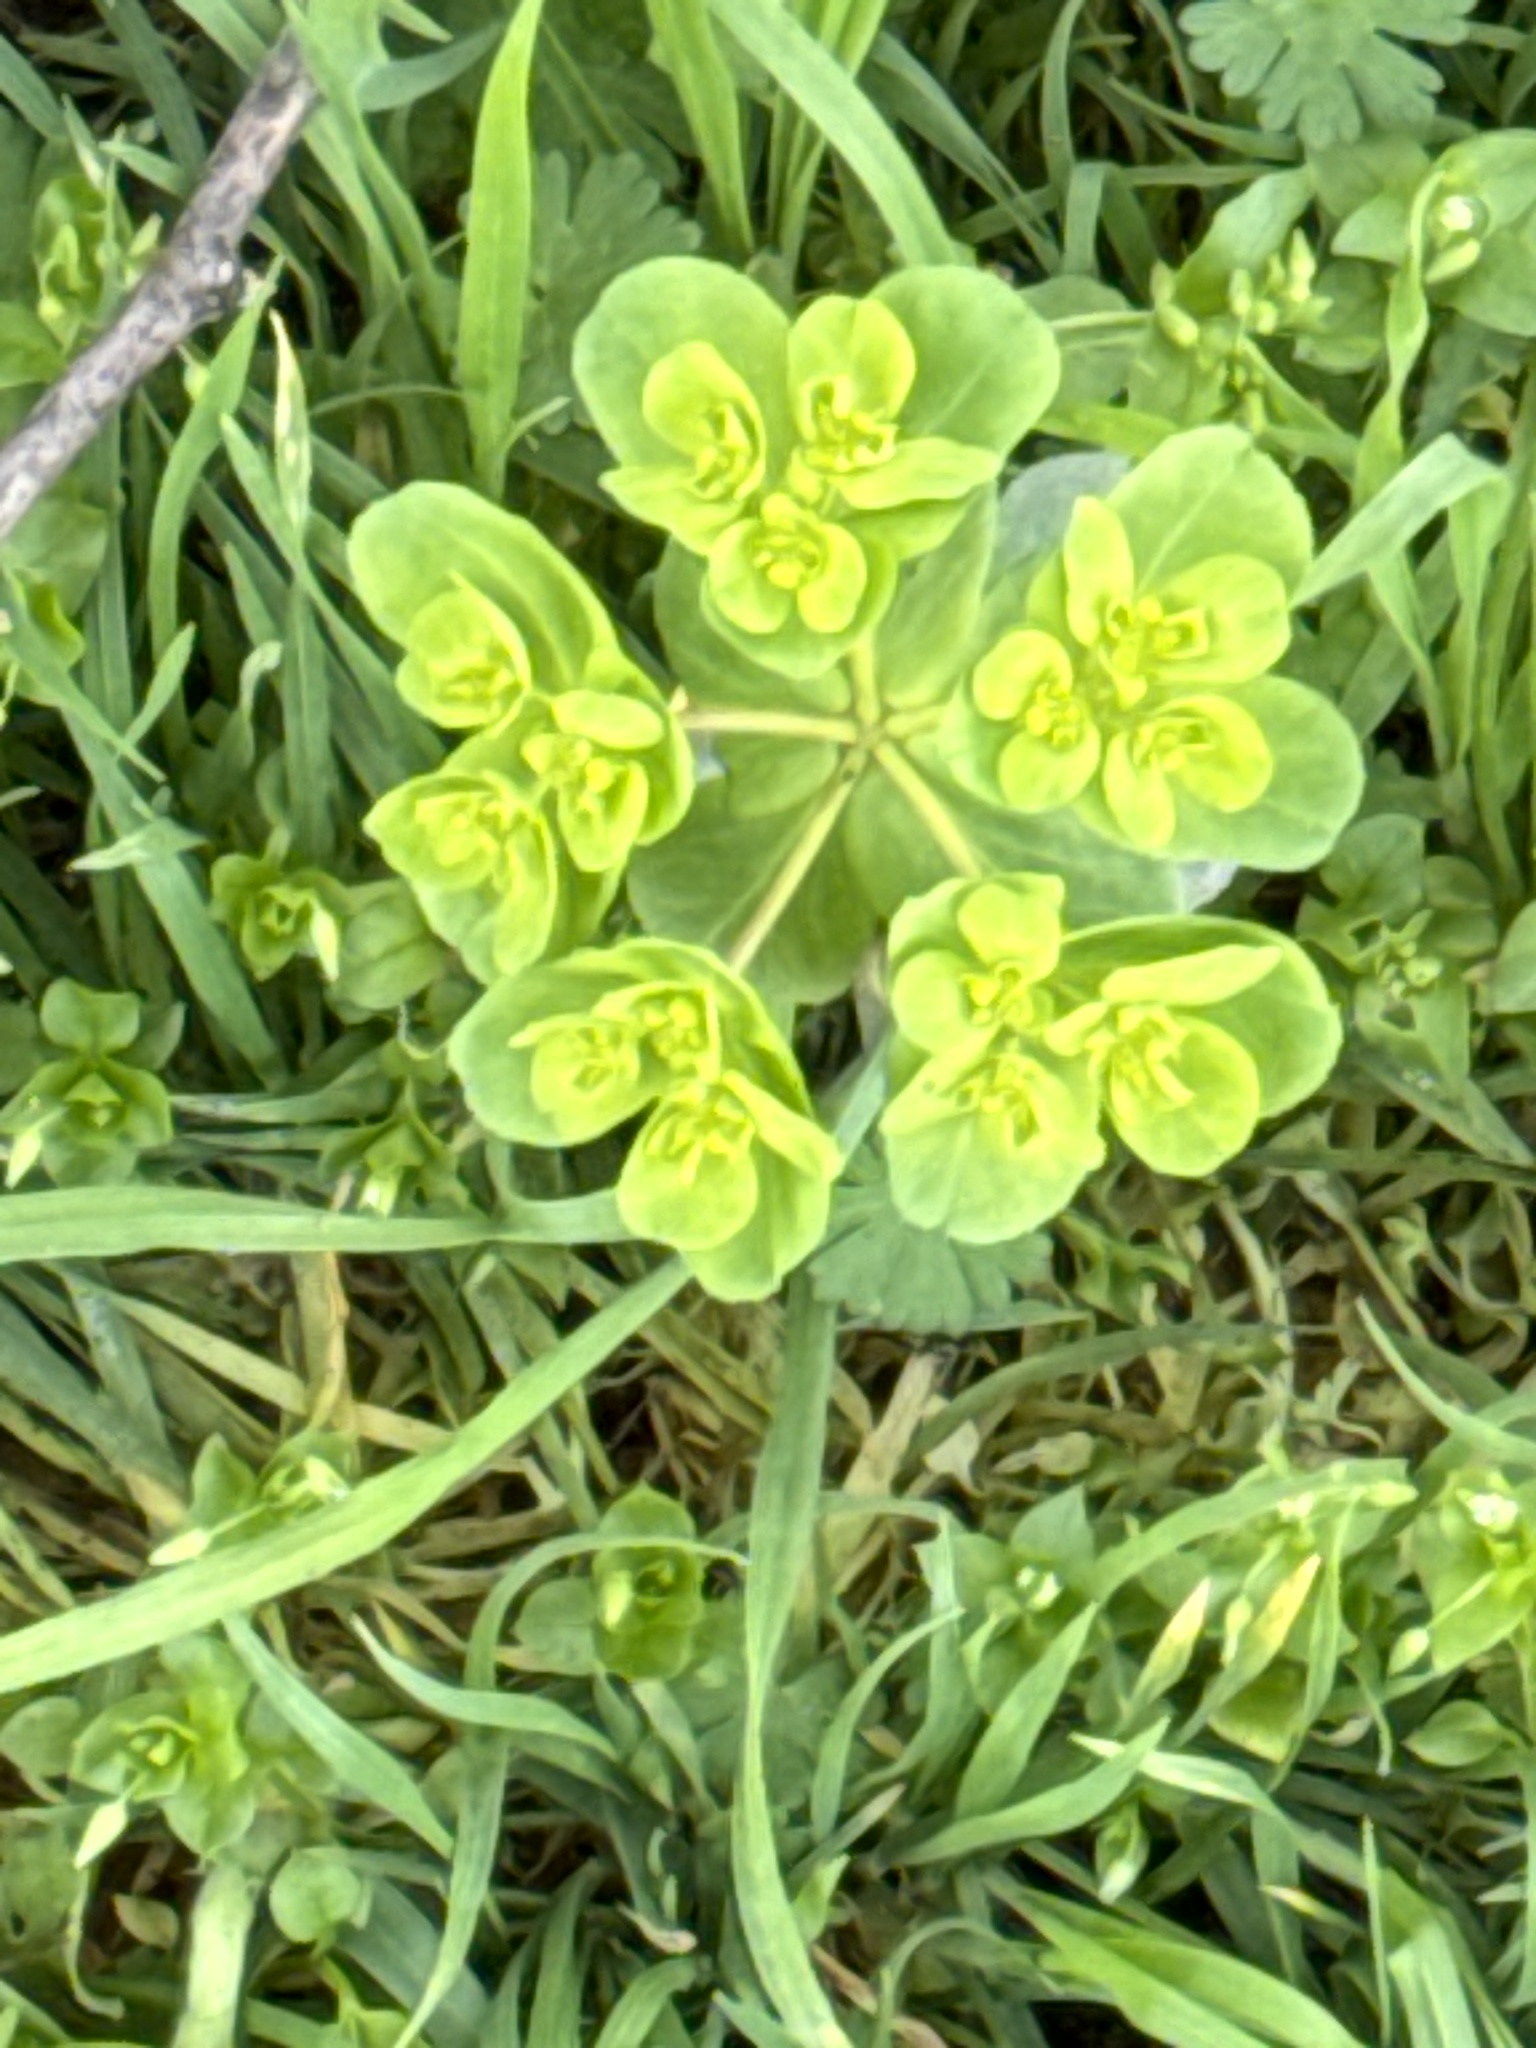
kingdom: Plantae
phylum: Tracheophyta
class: Magnoliopsida
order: Malpighiales
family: Euphorbiaceae
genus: Euphorbia
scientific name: Euphorbia helioscopia
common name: Sun spurge
